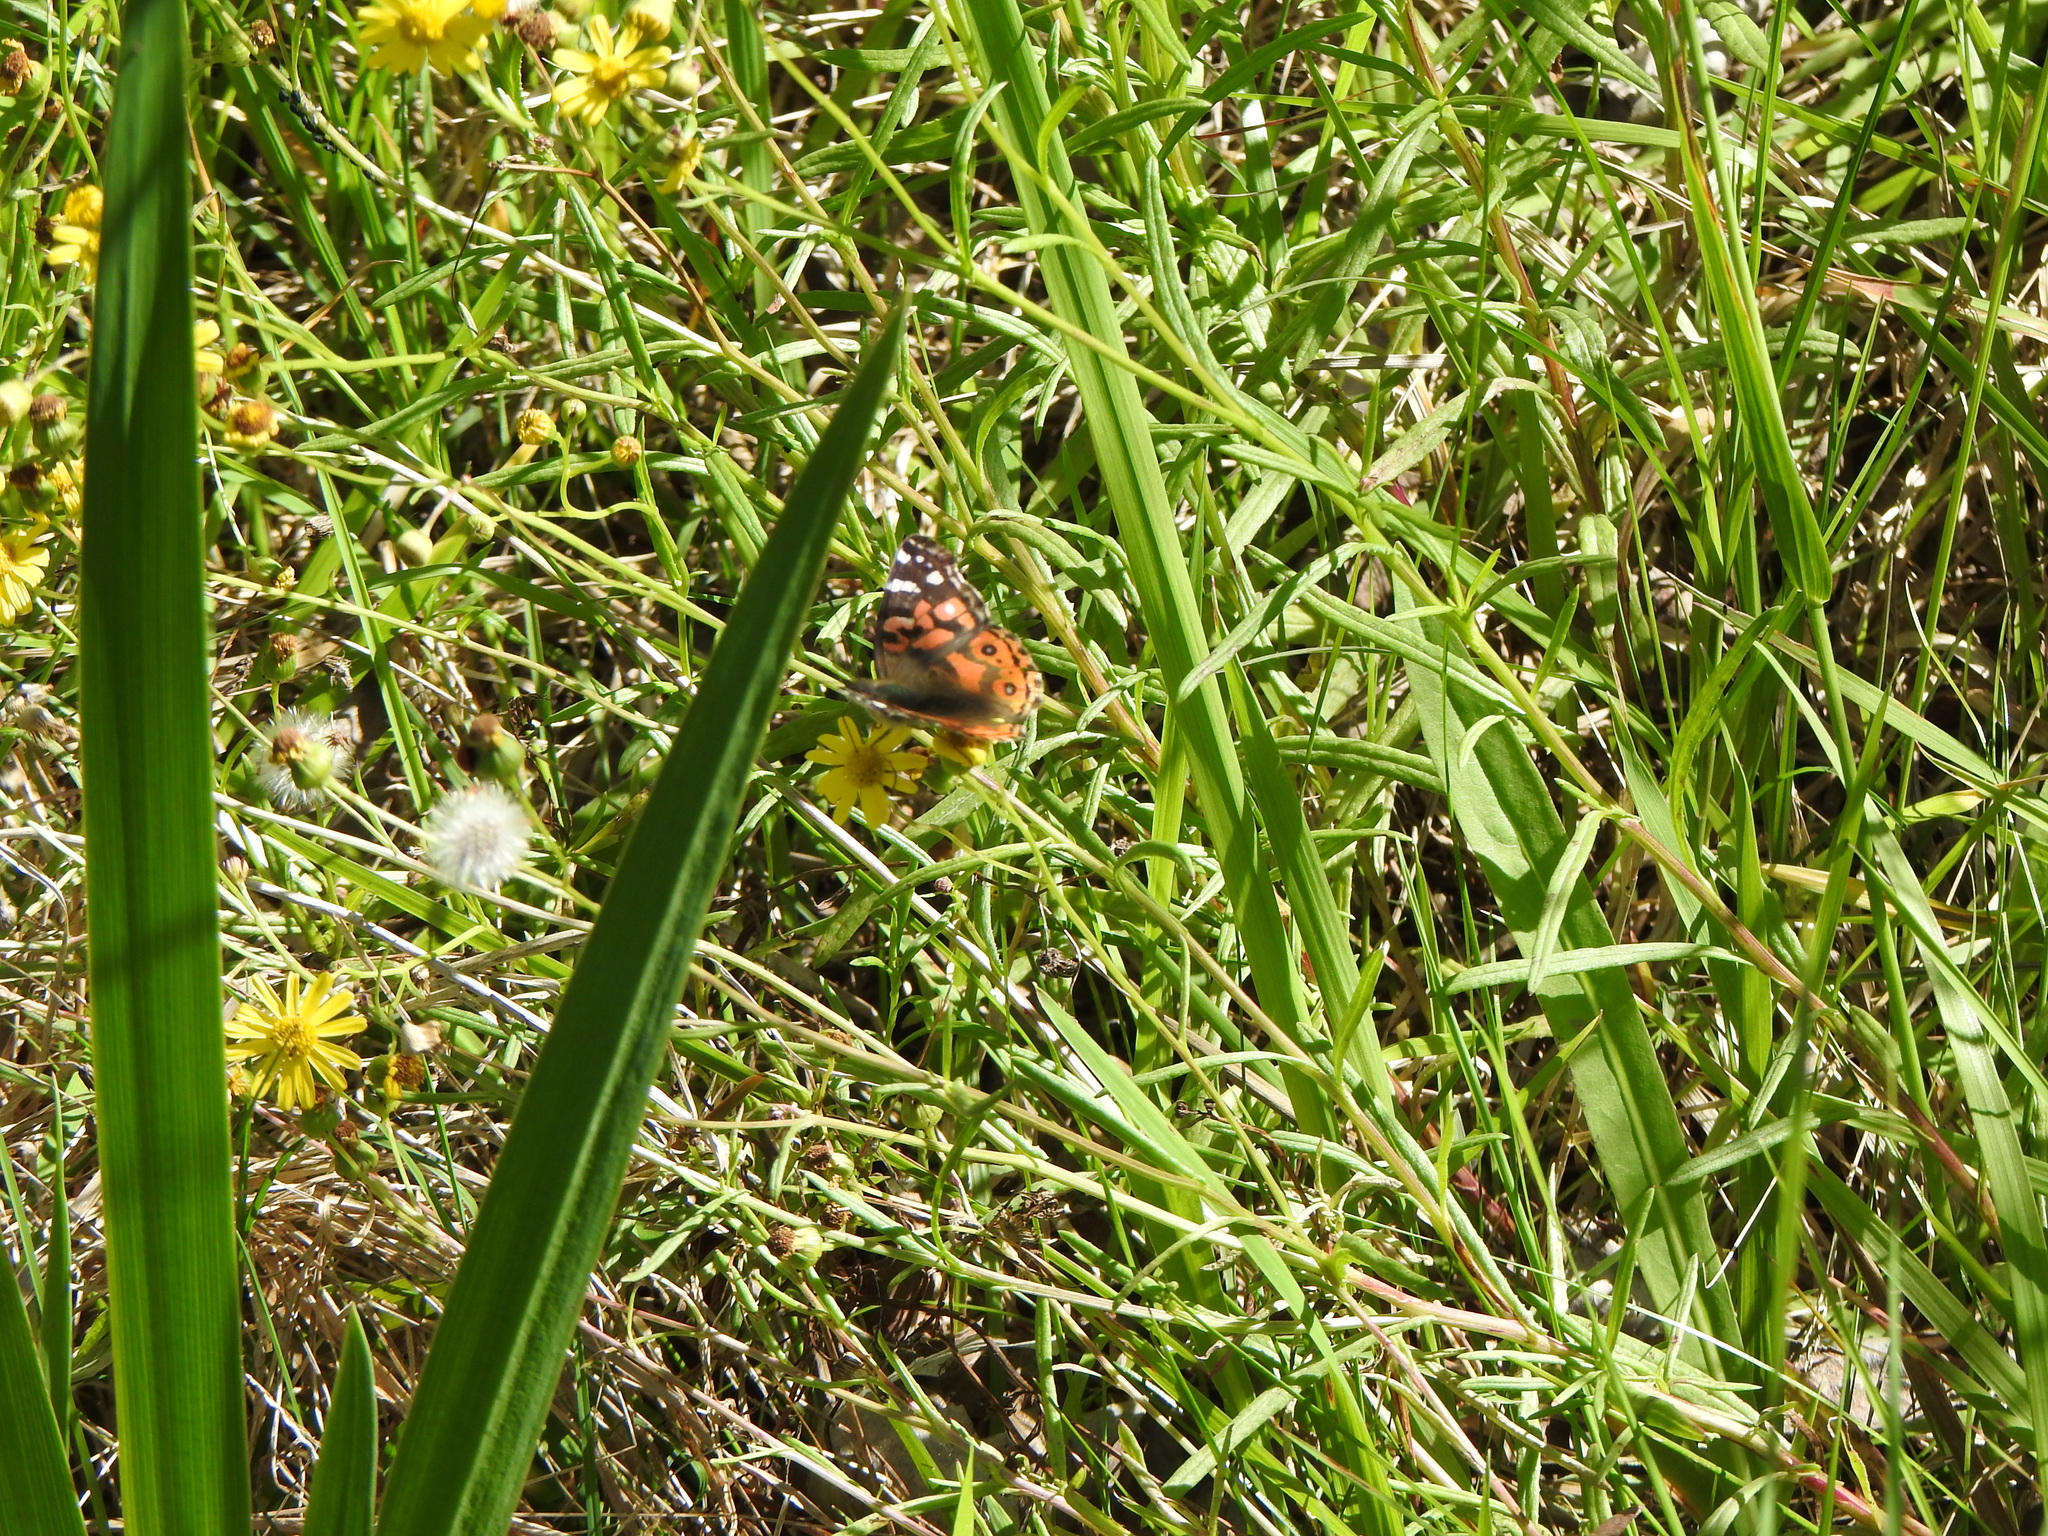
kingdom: Animalia
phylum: Arthropoda
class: Insecta
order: Lepidoptera
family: Nymphalidae
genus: Vanessa
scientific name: Vanessa braziliensis
